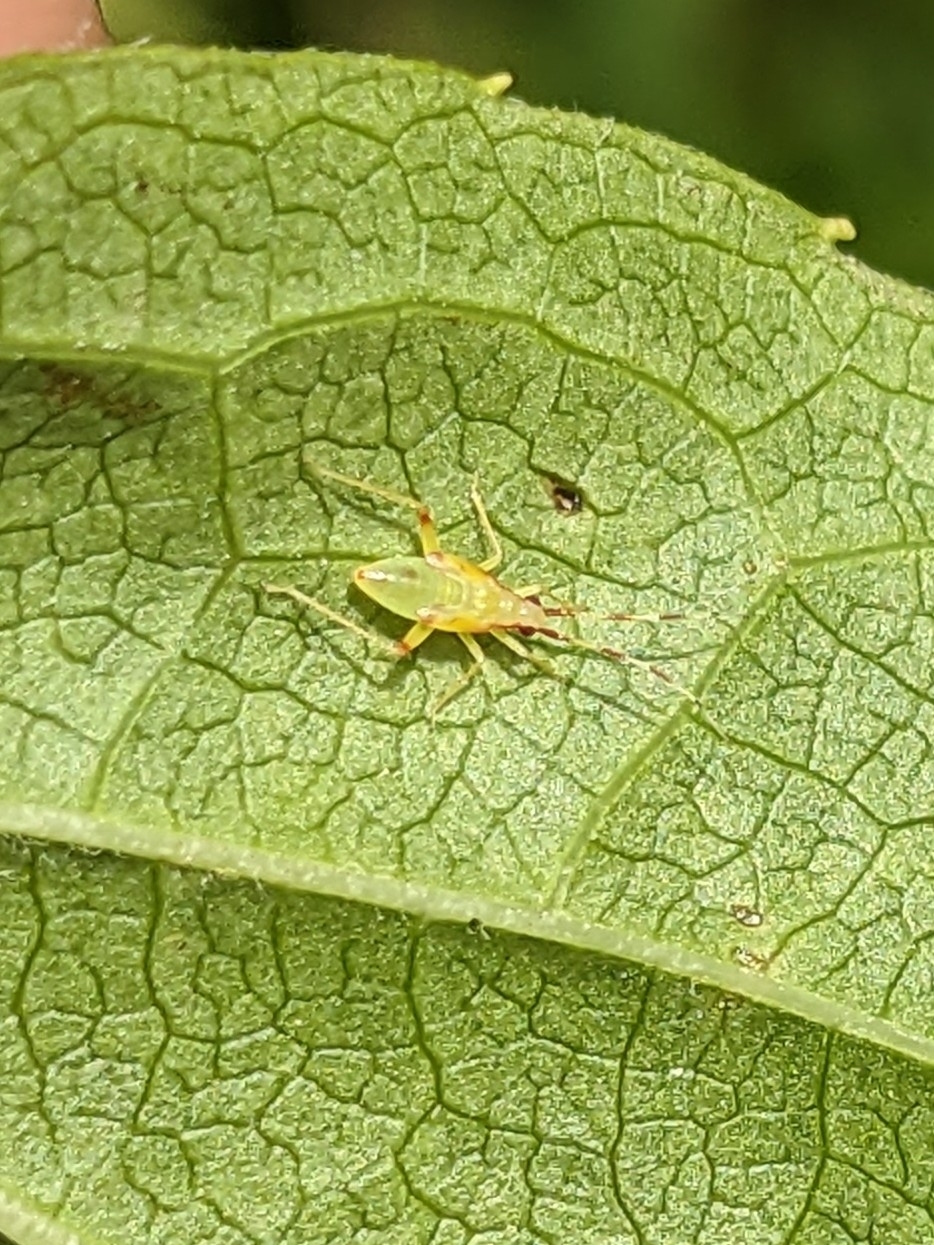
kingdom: Animalia
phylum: Arthropoda
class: Insecta
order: Hemiptera
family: Miridae
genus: Campyloneura
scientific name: Campyloneura virgula
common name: Predatory bug
